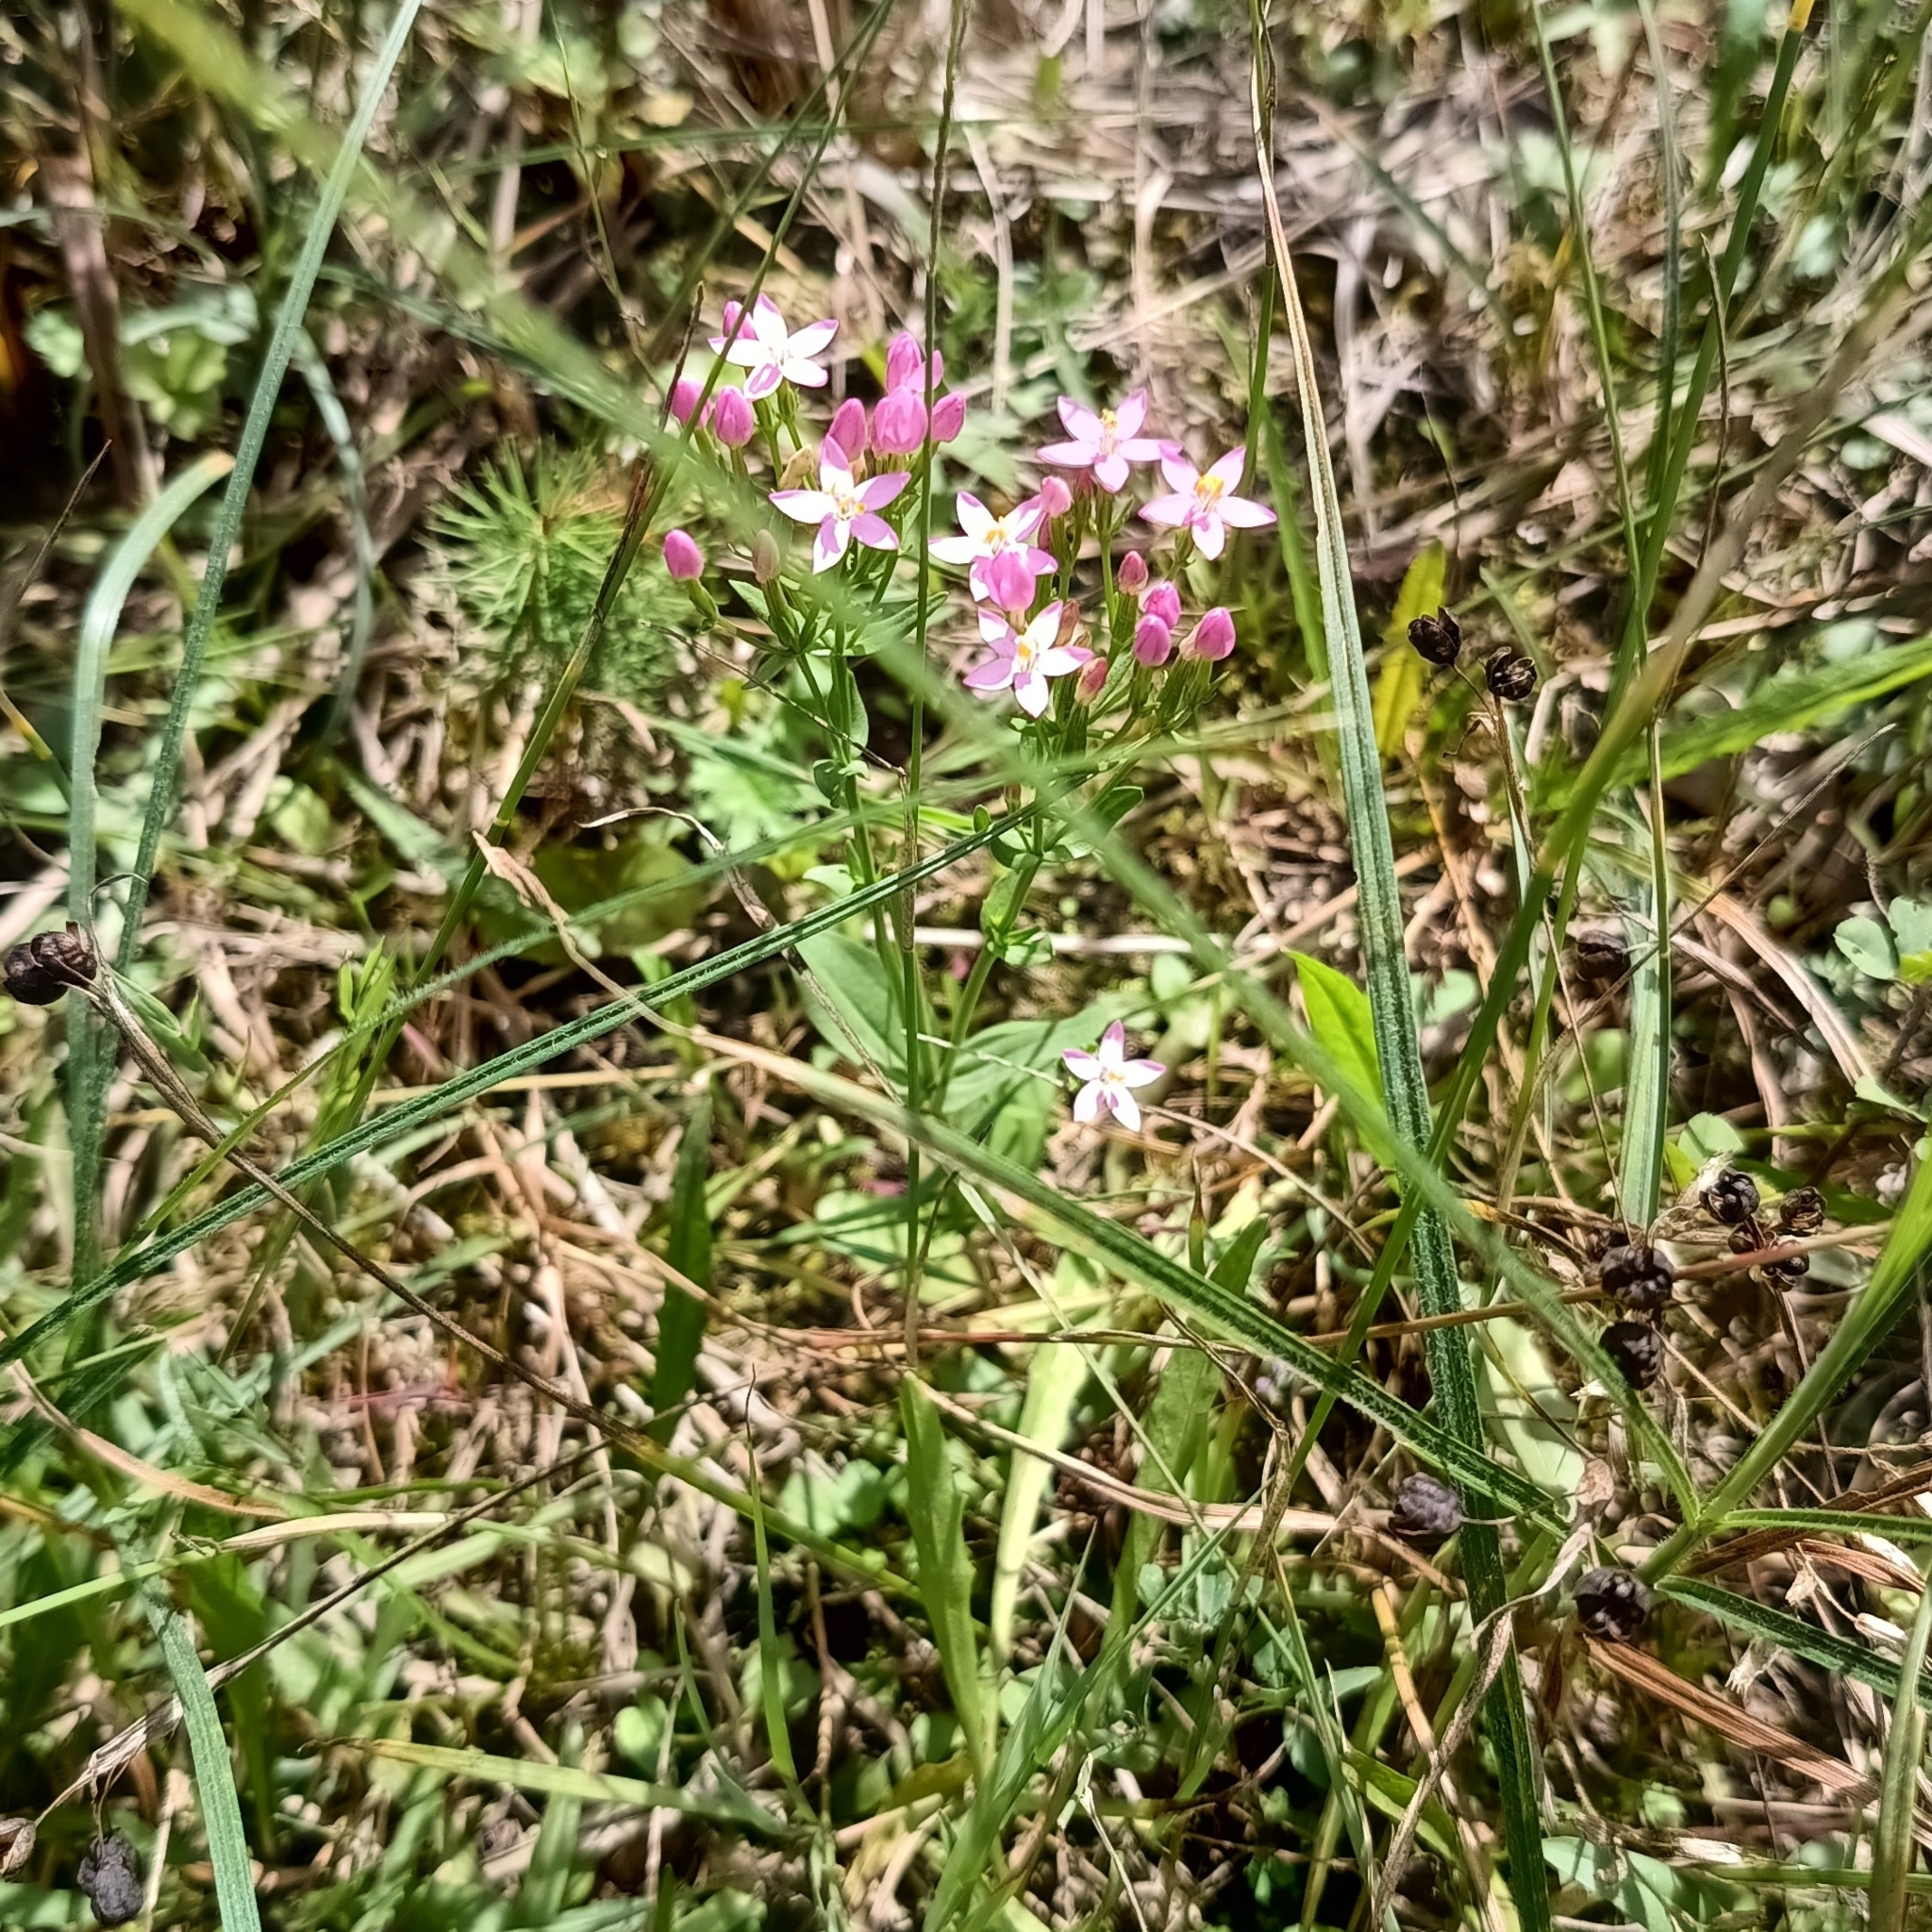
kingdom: Plantae
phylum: Tracheophyta
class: Magnoliopsida
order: Gentianales
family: Gentianaceae
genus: Centaurium
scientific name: Centaurium erythraea
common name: Common centaury
